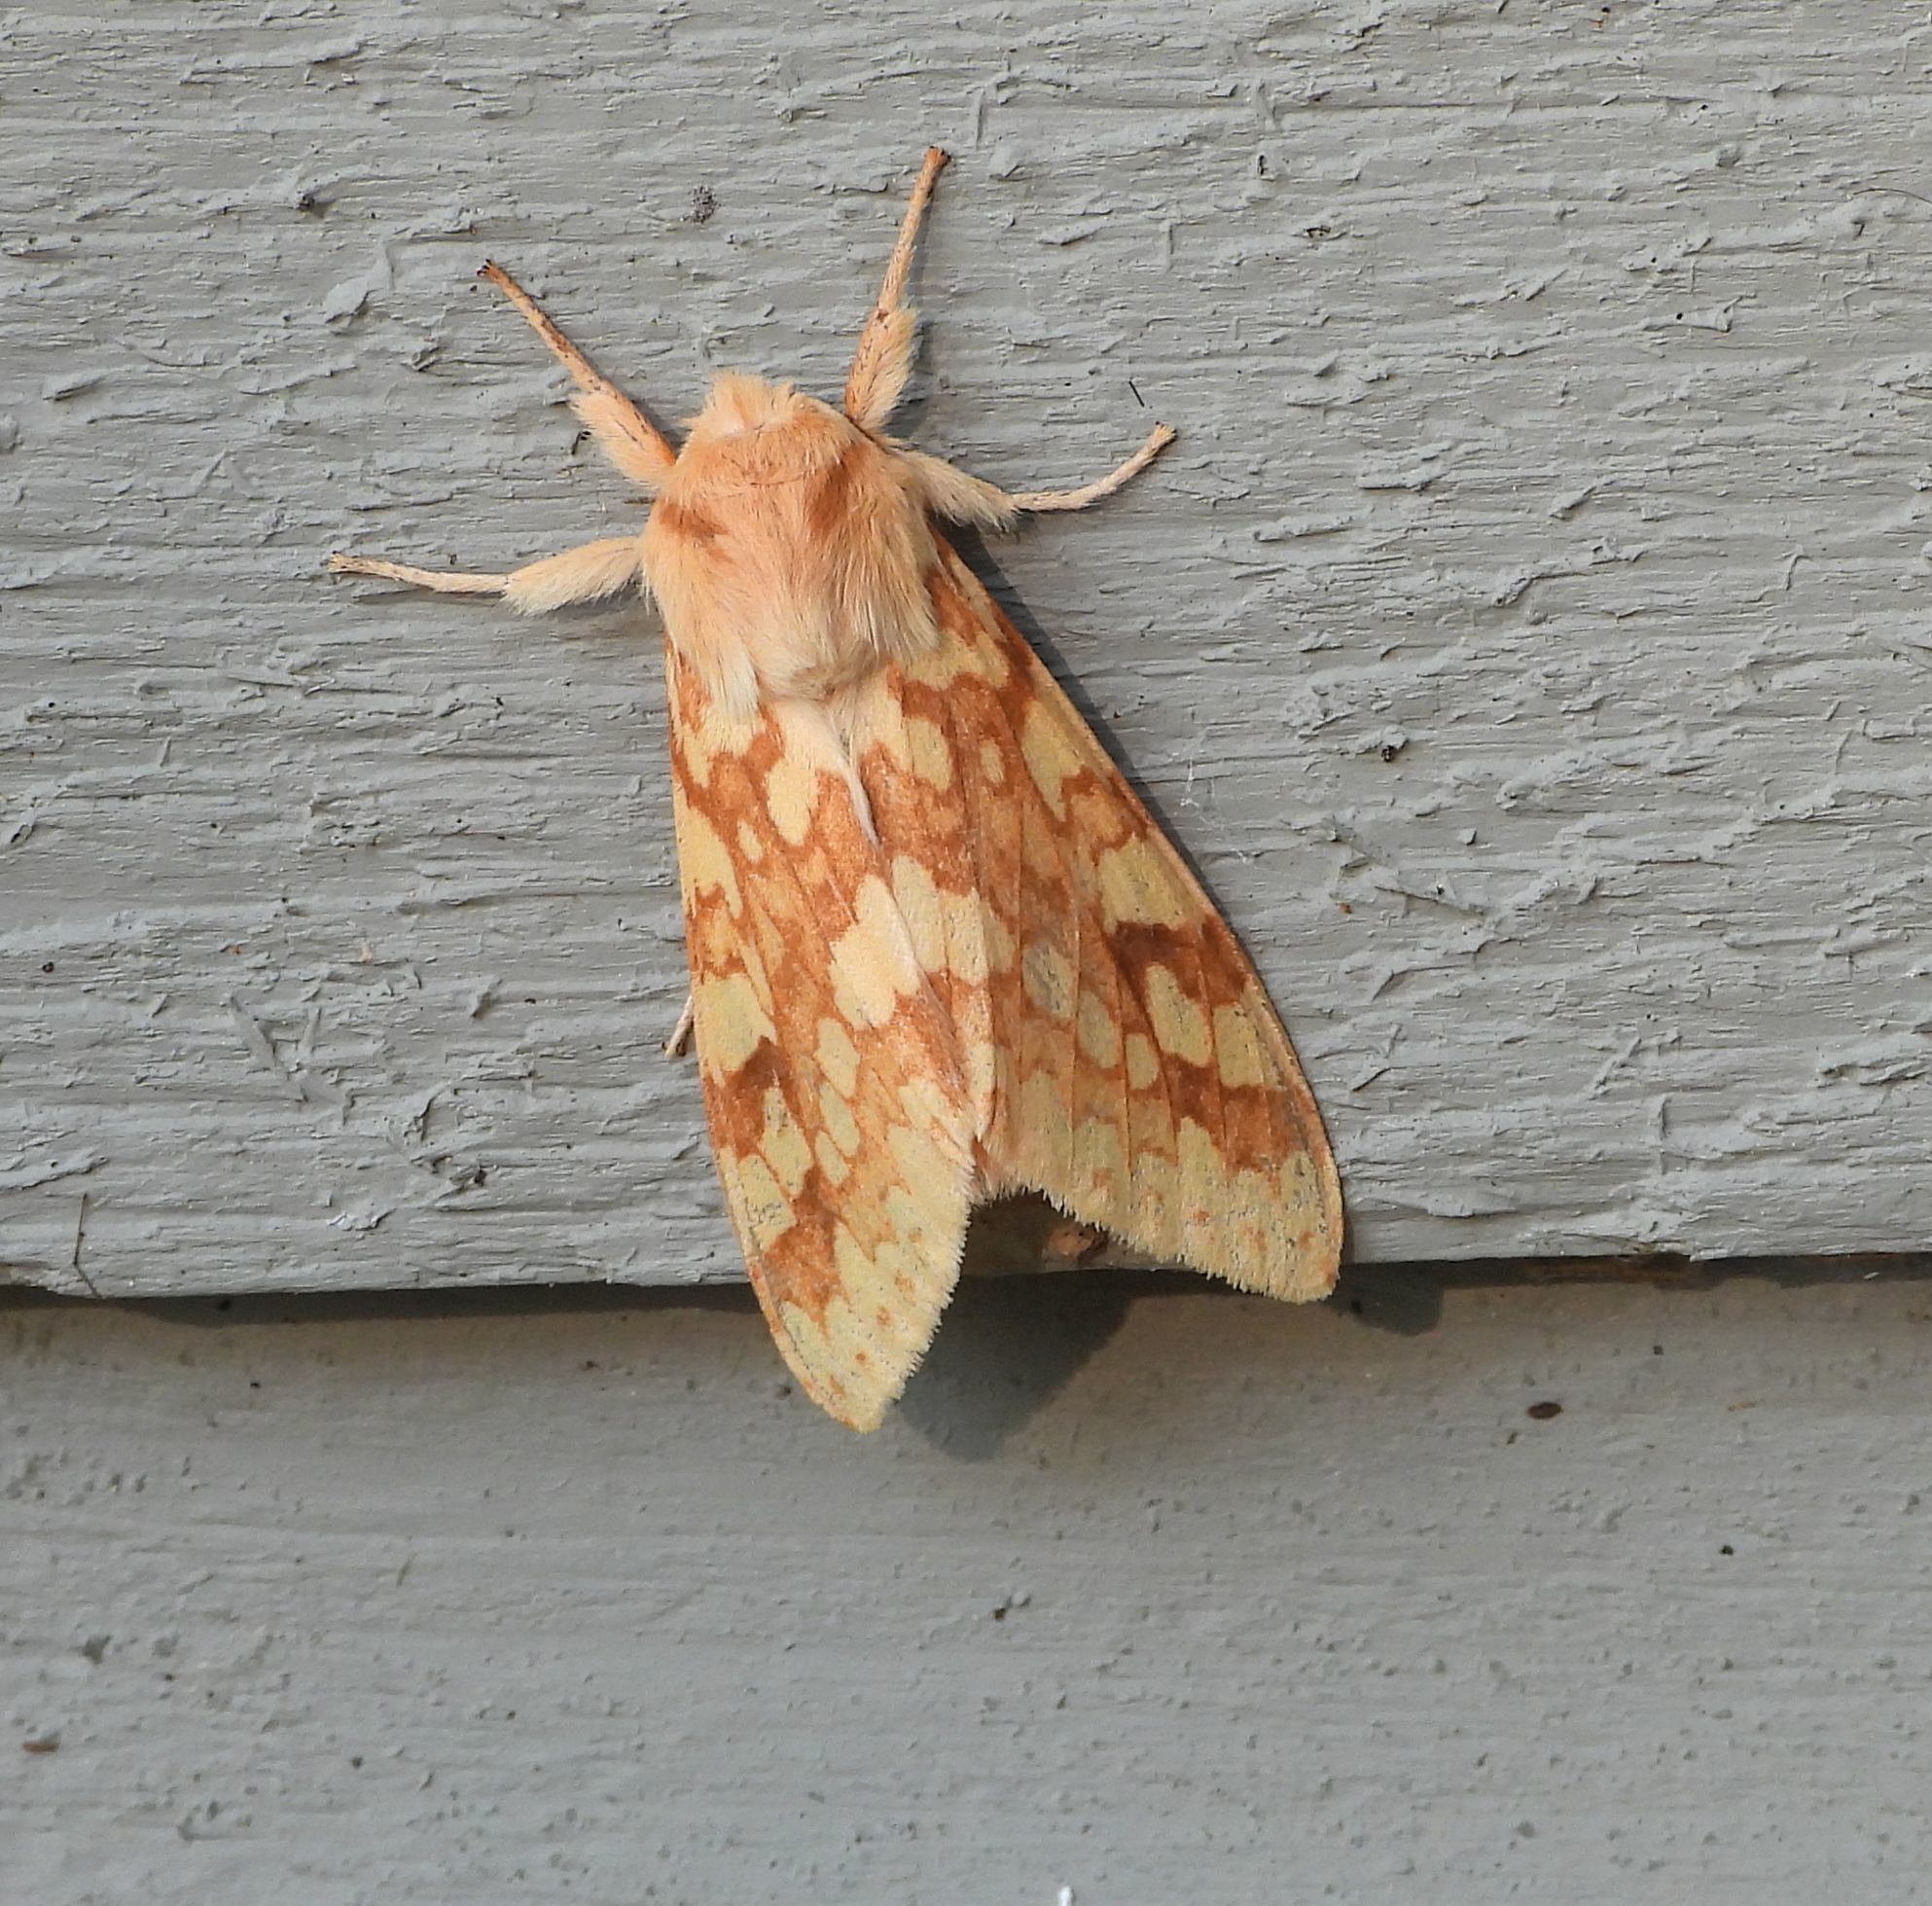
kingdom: Animalia
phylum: Arthropoda
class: Insecta
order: Lepidoptera
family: Erebidae
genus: Lophocampa
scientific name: Lophocampa maculata
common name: Spotted tussock moth
